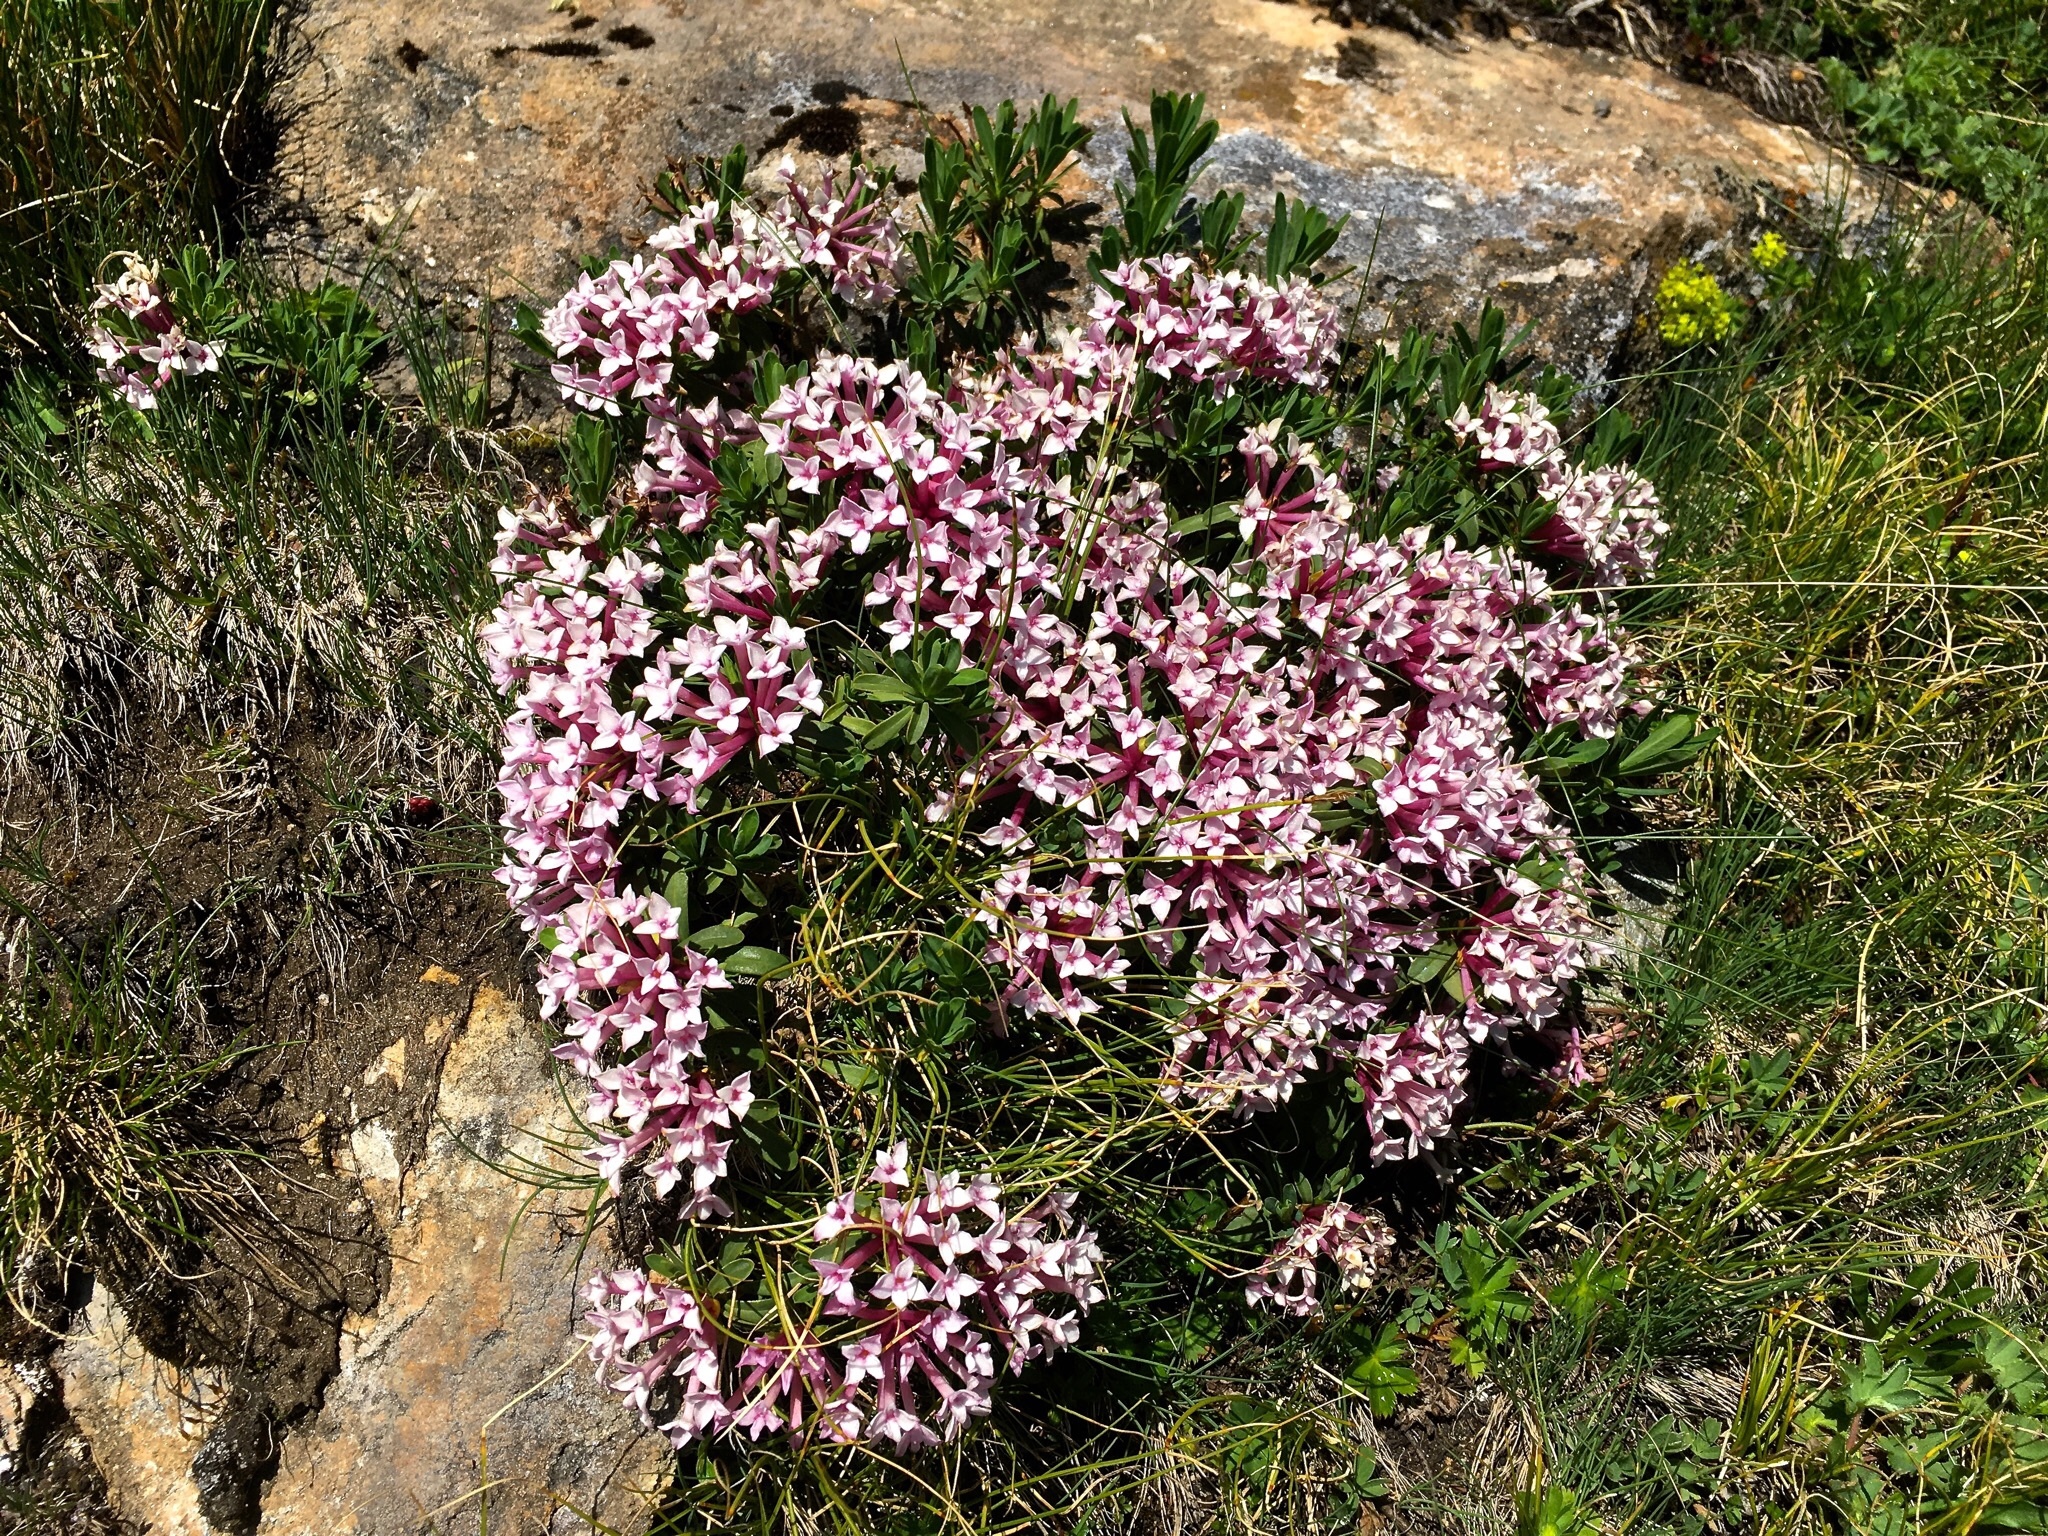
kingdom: Plantae
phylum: Tracheophyta
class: Magnoliopsida
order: Malvales
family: Thymelaeaceae
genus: Daphne
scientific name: Daphne striata
